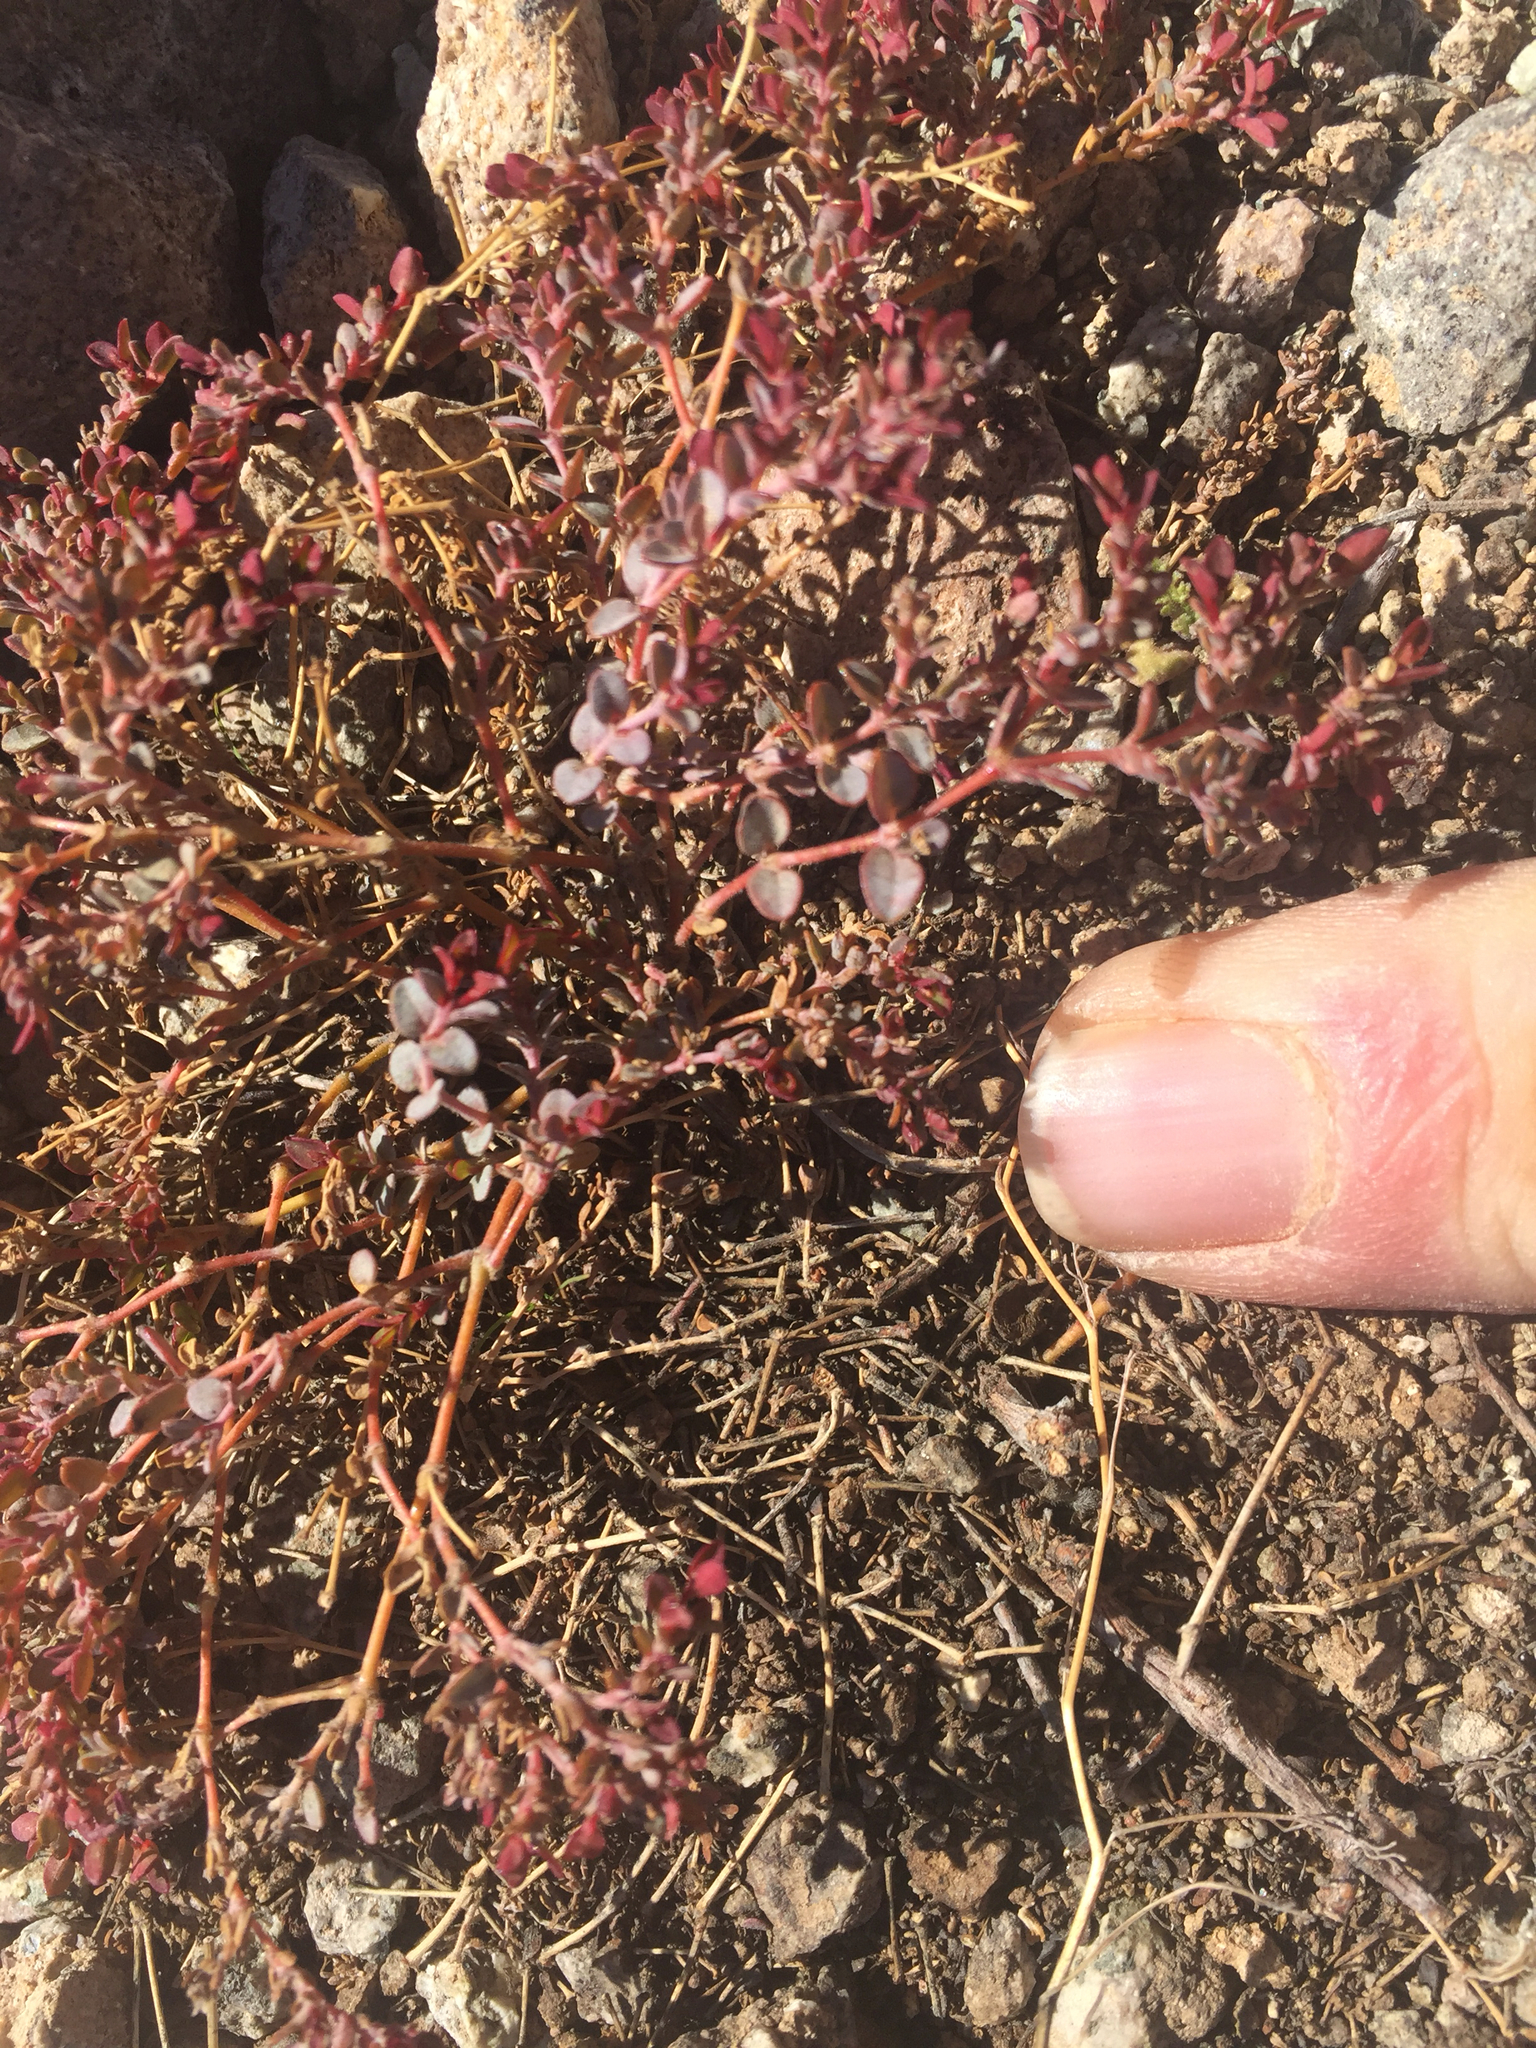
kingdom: Plantae
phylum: Tracheophyta
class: Magnoliopsida
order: Malpighiales
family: Euphorbiaceae
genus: Euphorbia
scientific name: Euphorbia polycarpa
